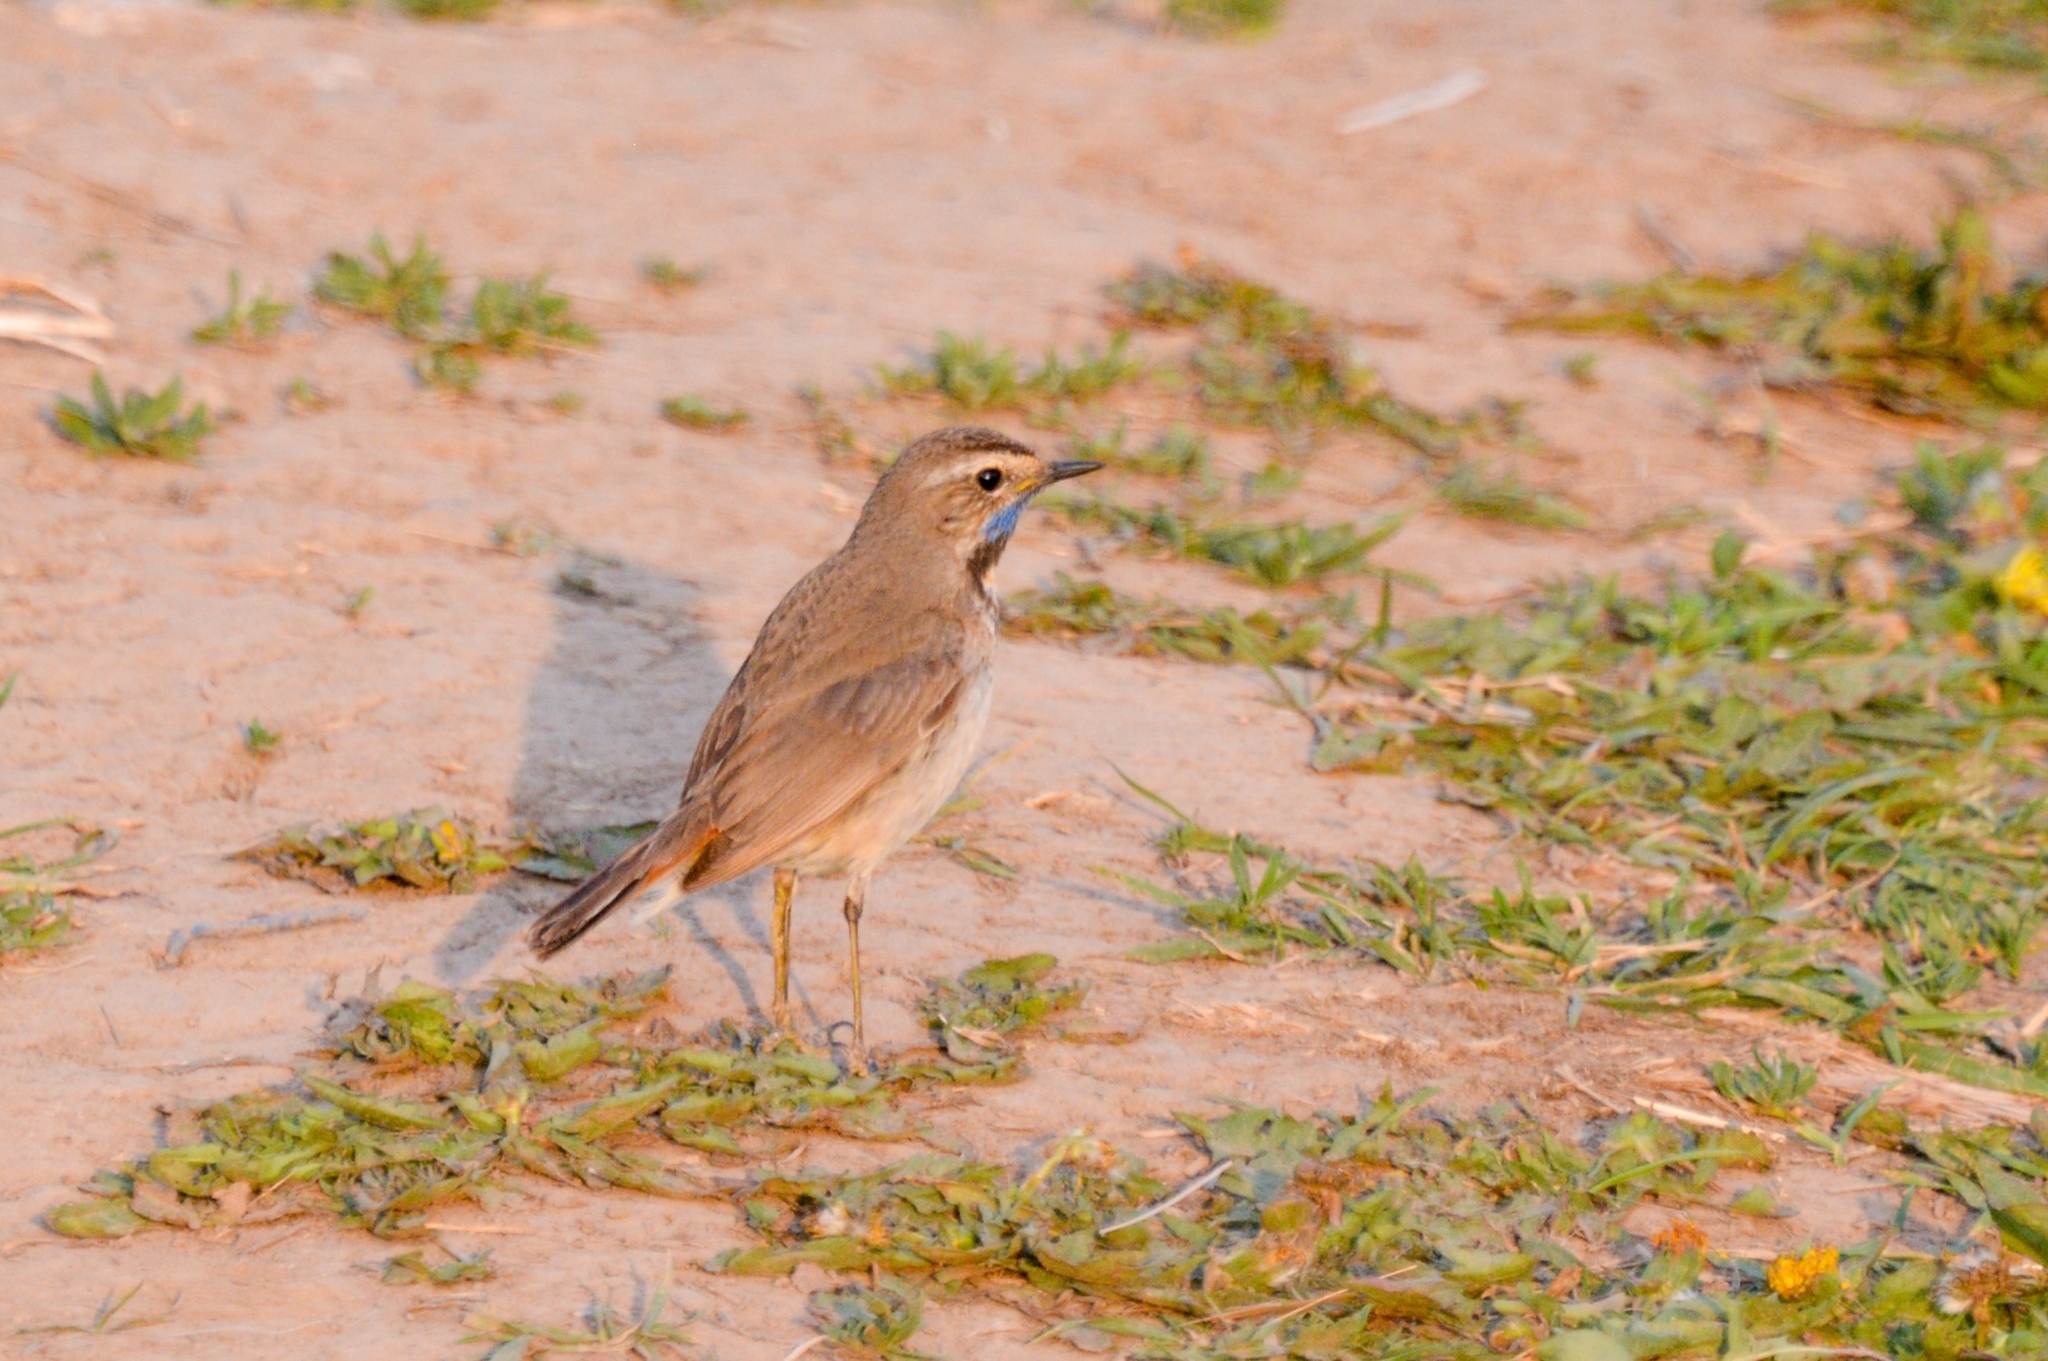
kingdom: Animalia
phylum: Chordata
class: Aves
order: Passeriformes
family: Muscicapidae
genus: Luscinia
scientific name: Luscinia svecica
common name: Bluethroat
